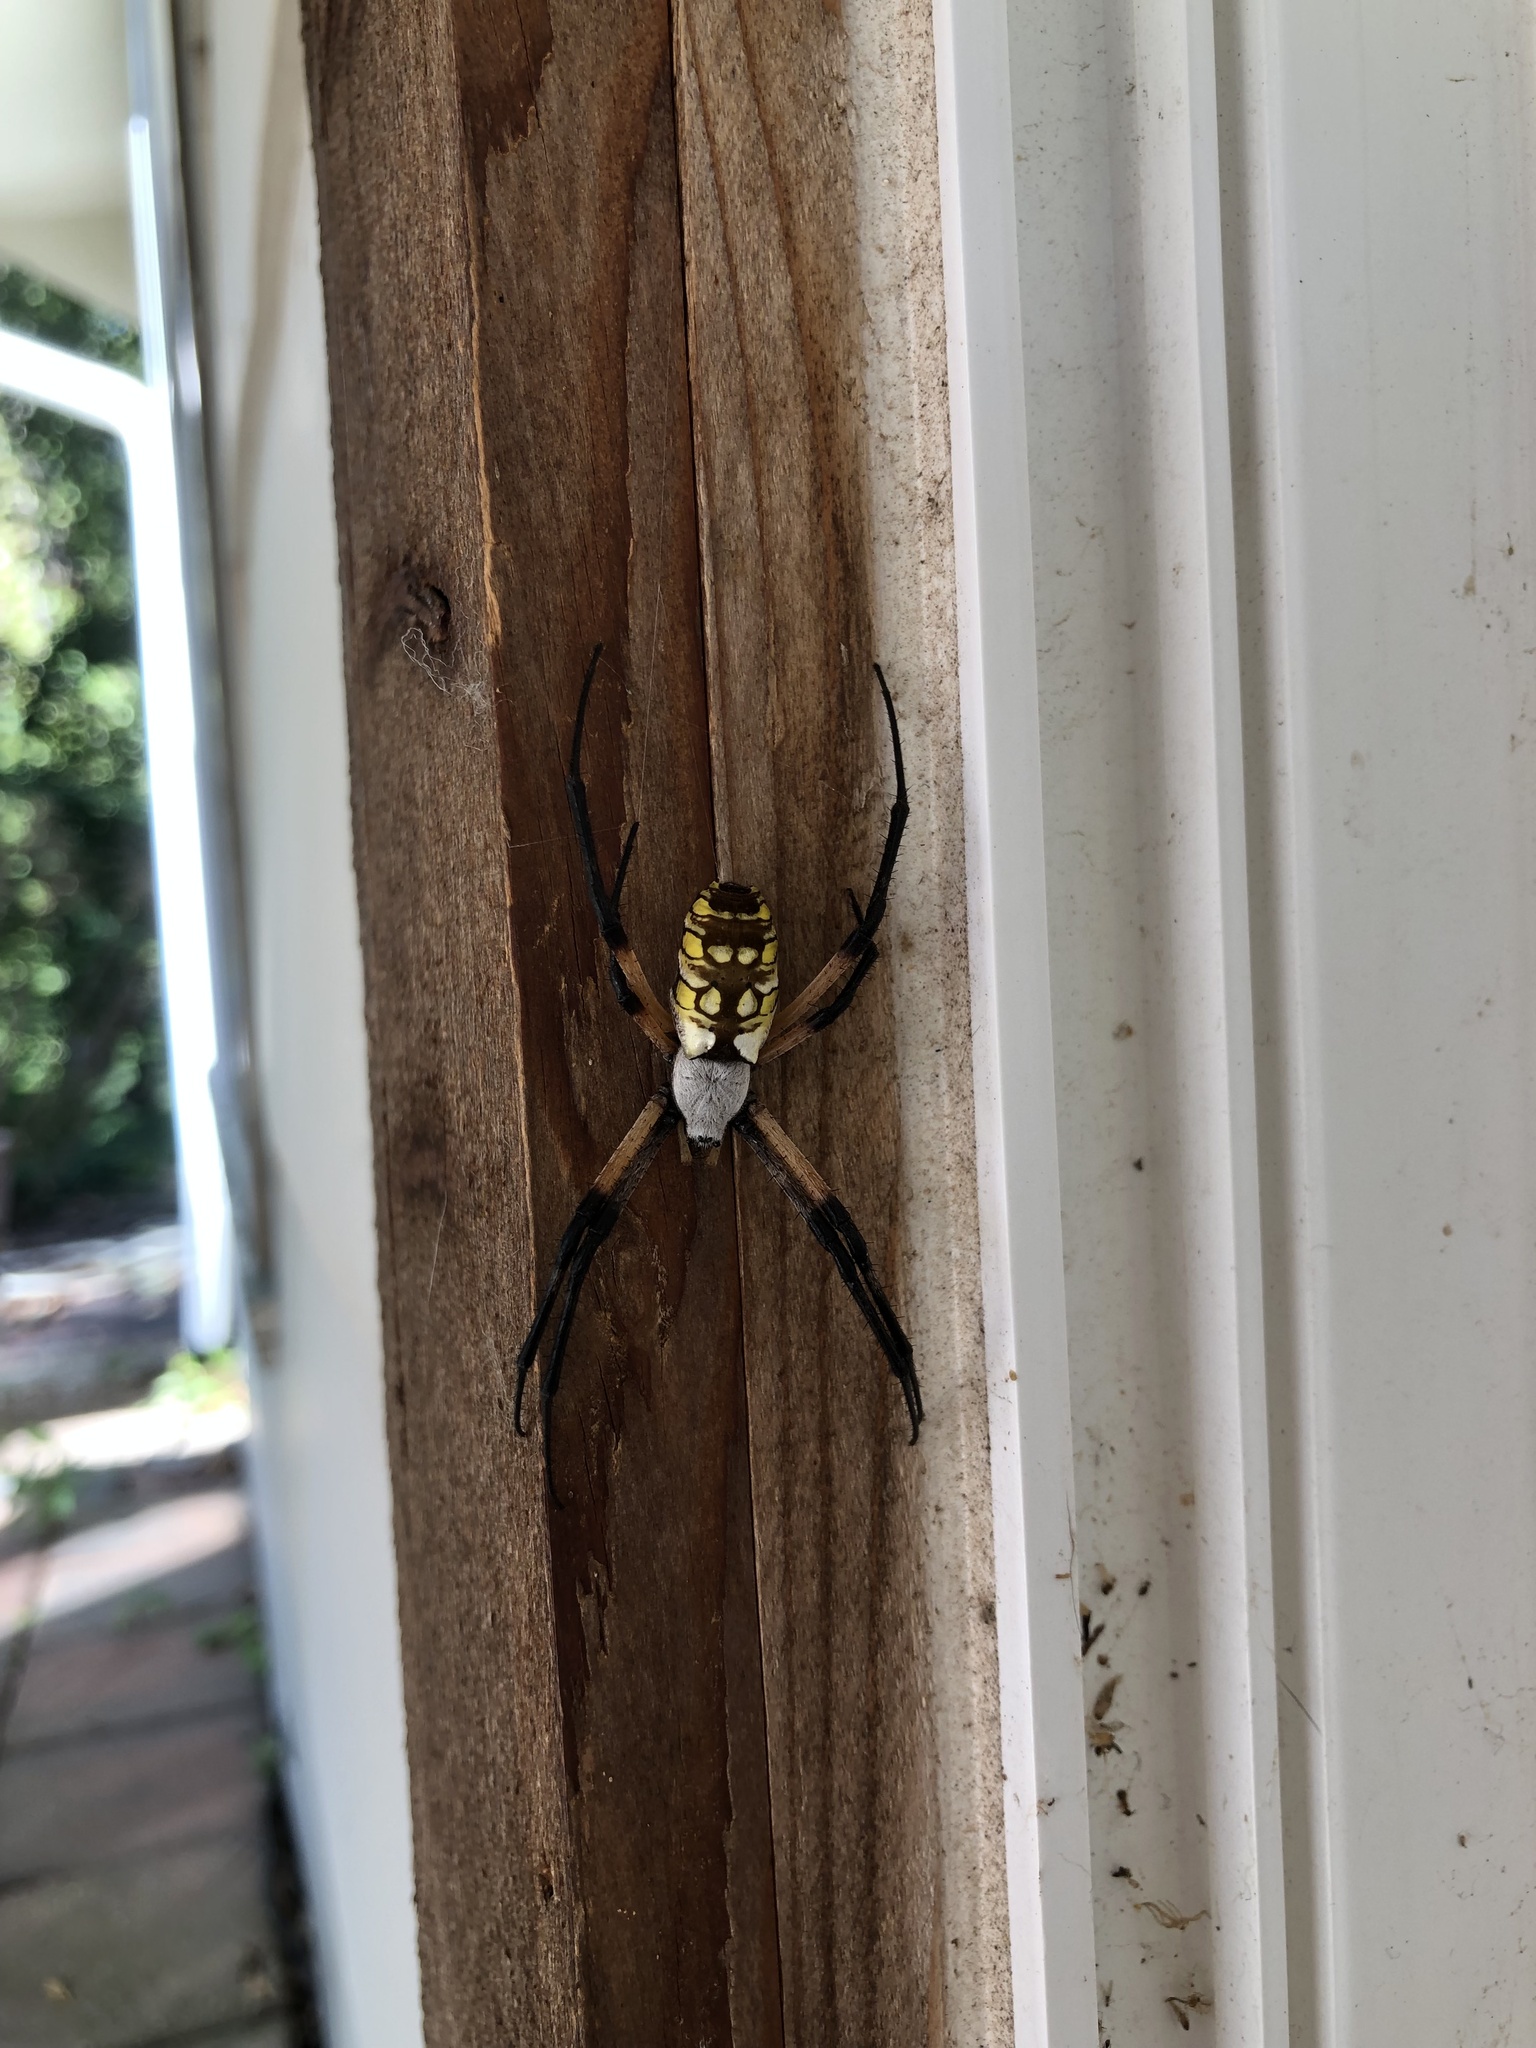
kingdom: Animalia
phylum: Arthropoda
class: Arachnida
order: Araneae
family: Araneidae
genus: Argiope
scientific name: Argiope aurantia
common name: Orb weavers
